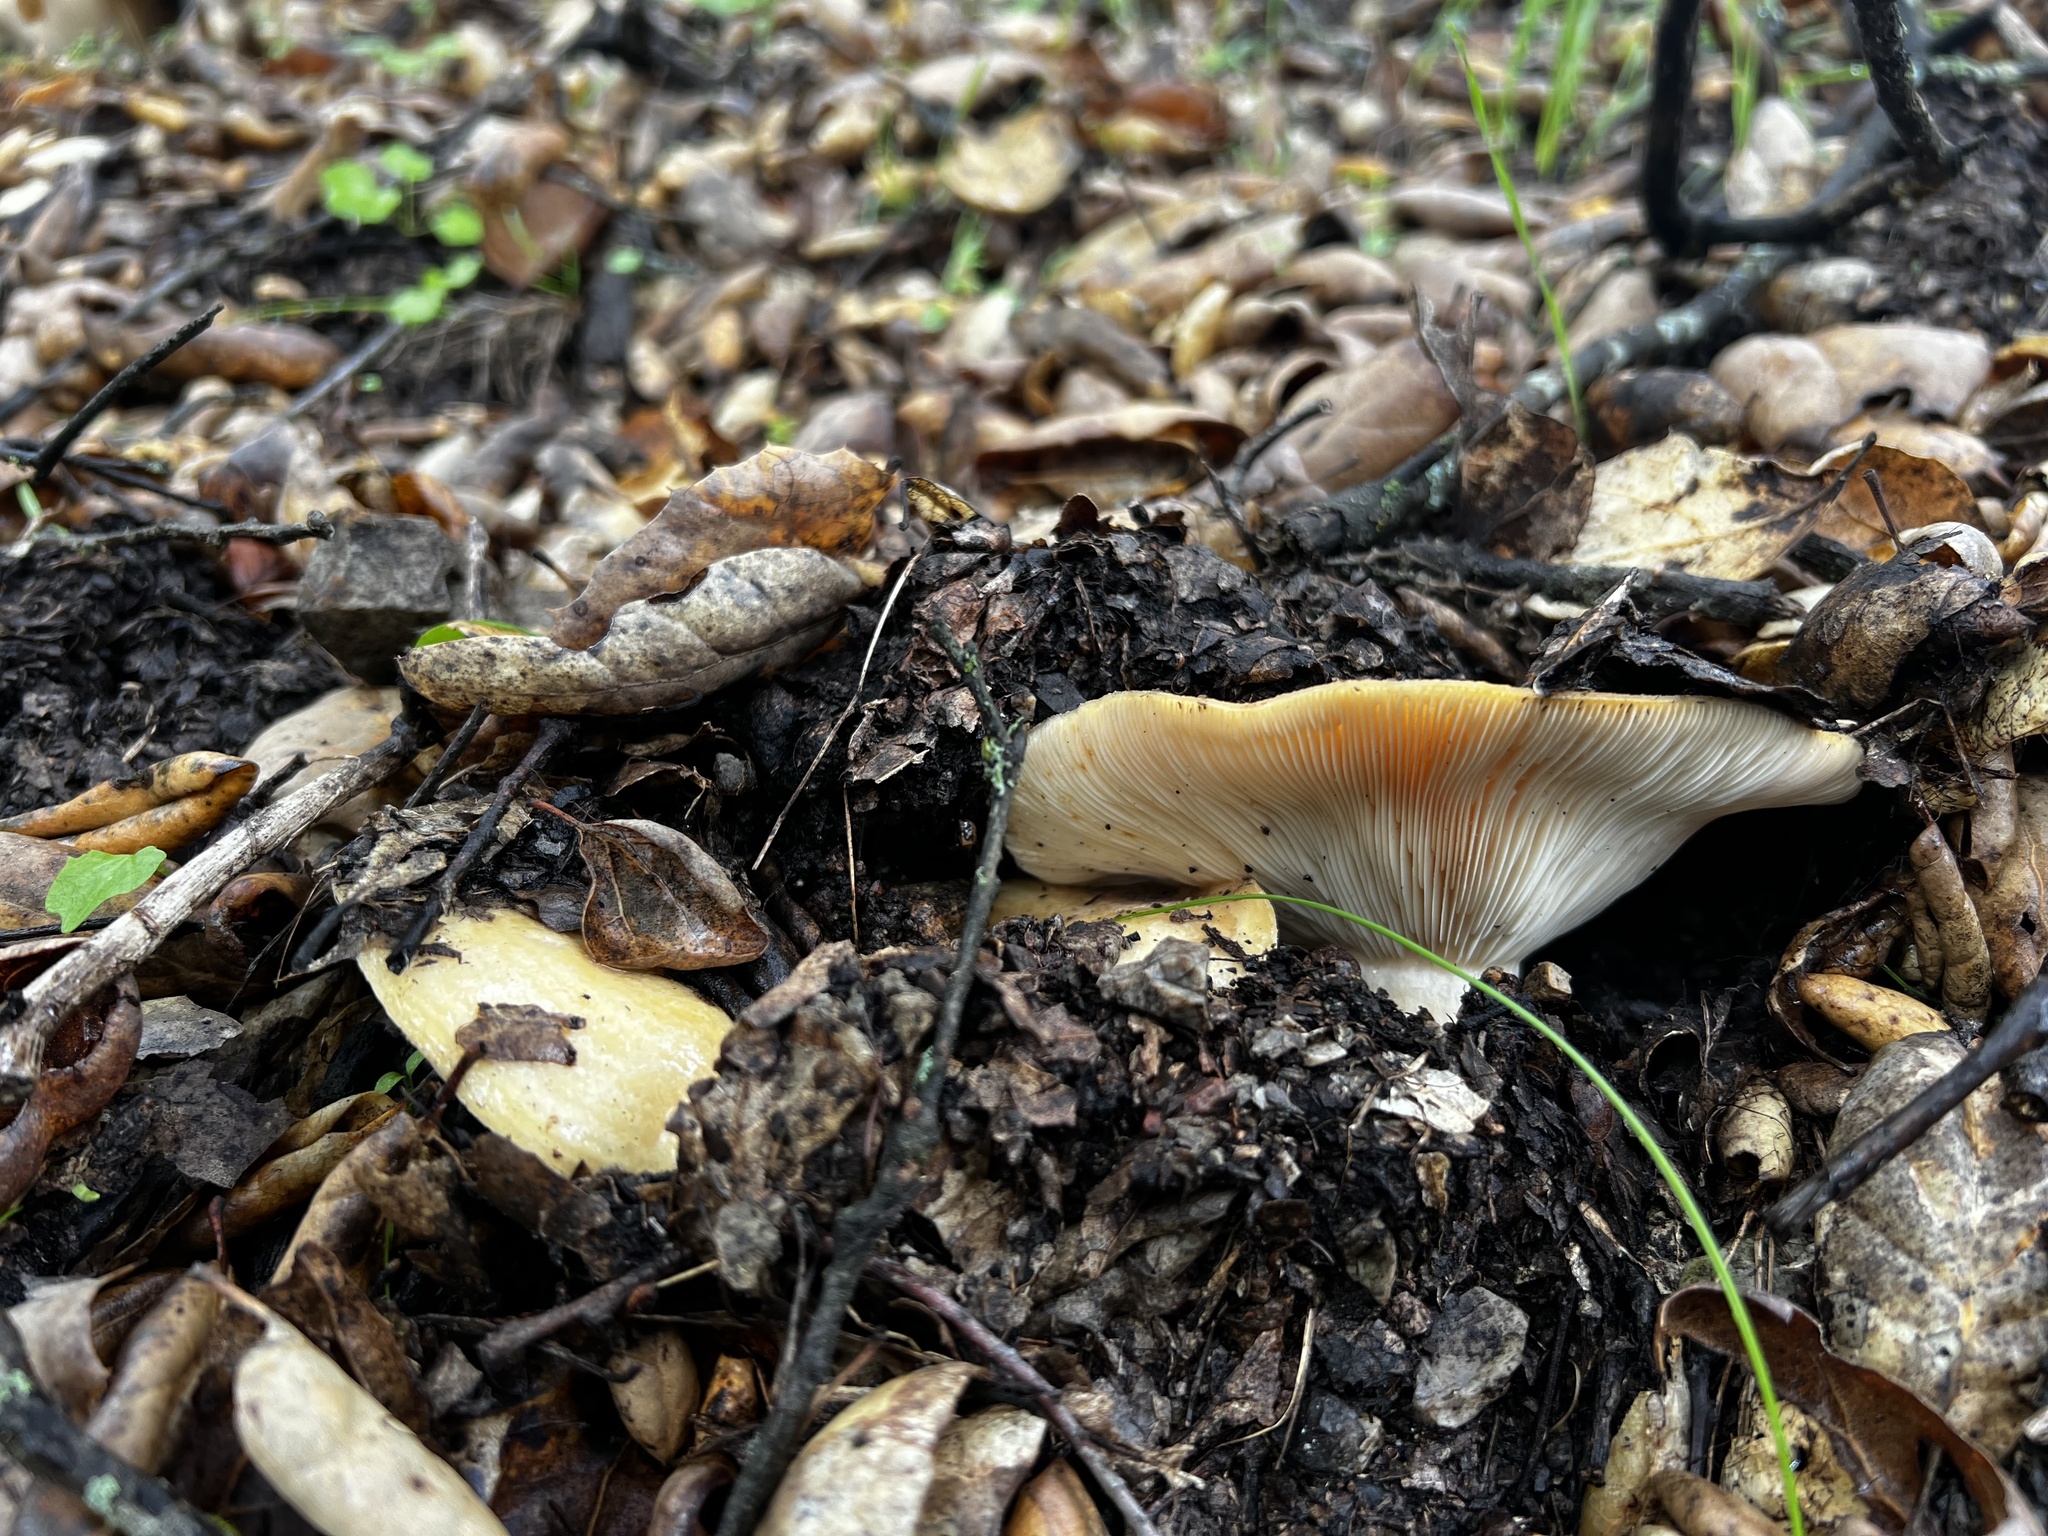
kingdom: Fungi
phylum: Basidiomycota
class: Agaricomycetes
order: Russulales
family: Russulaceae
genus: Lactarius
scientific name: Lactarius alnicola
